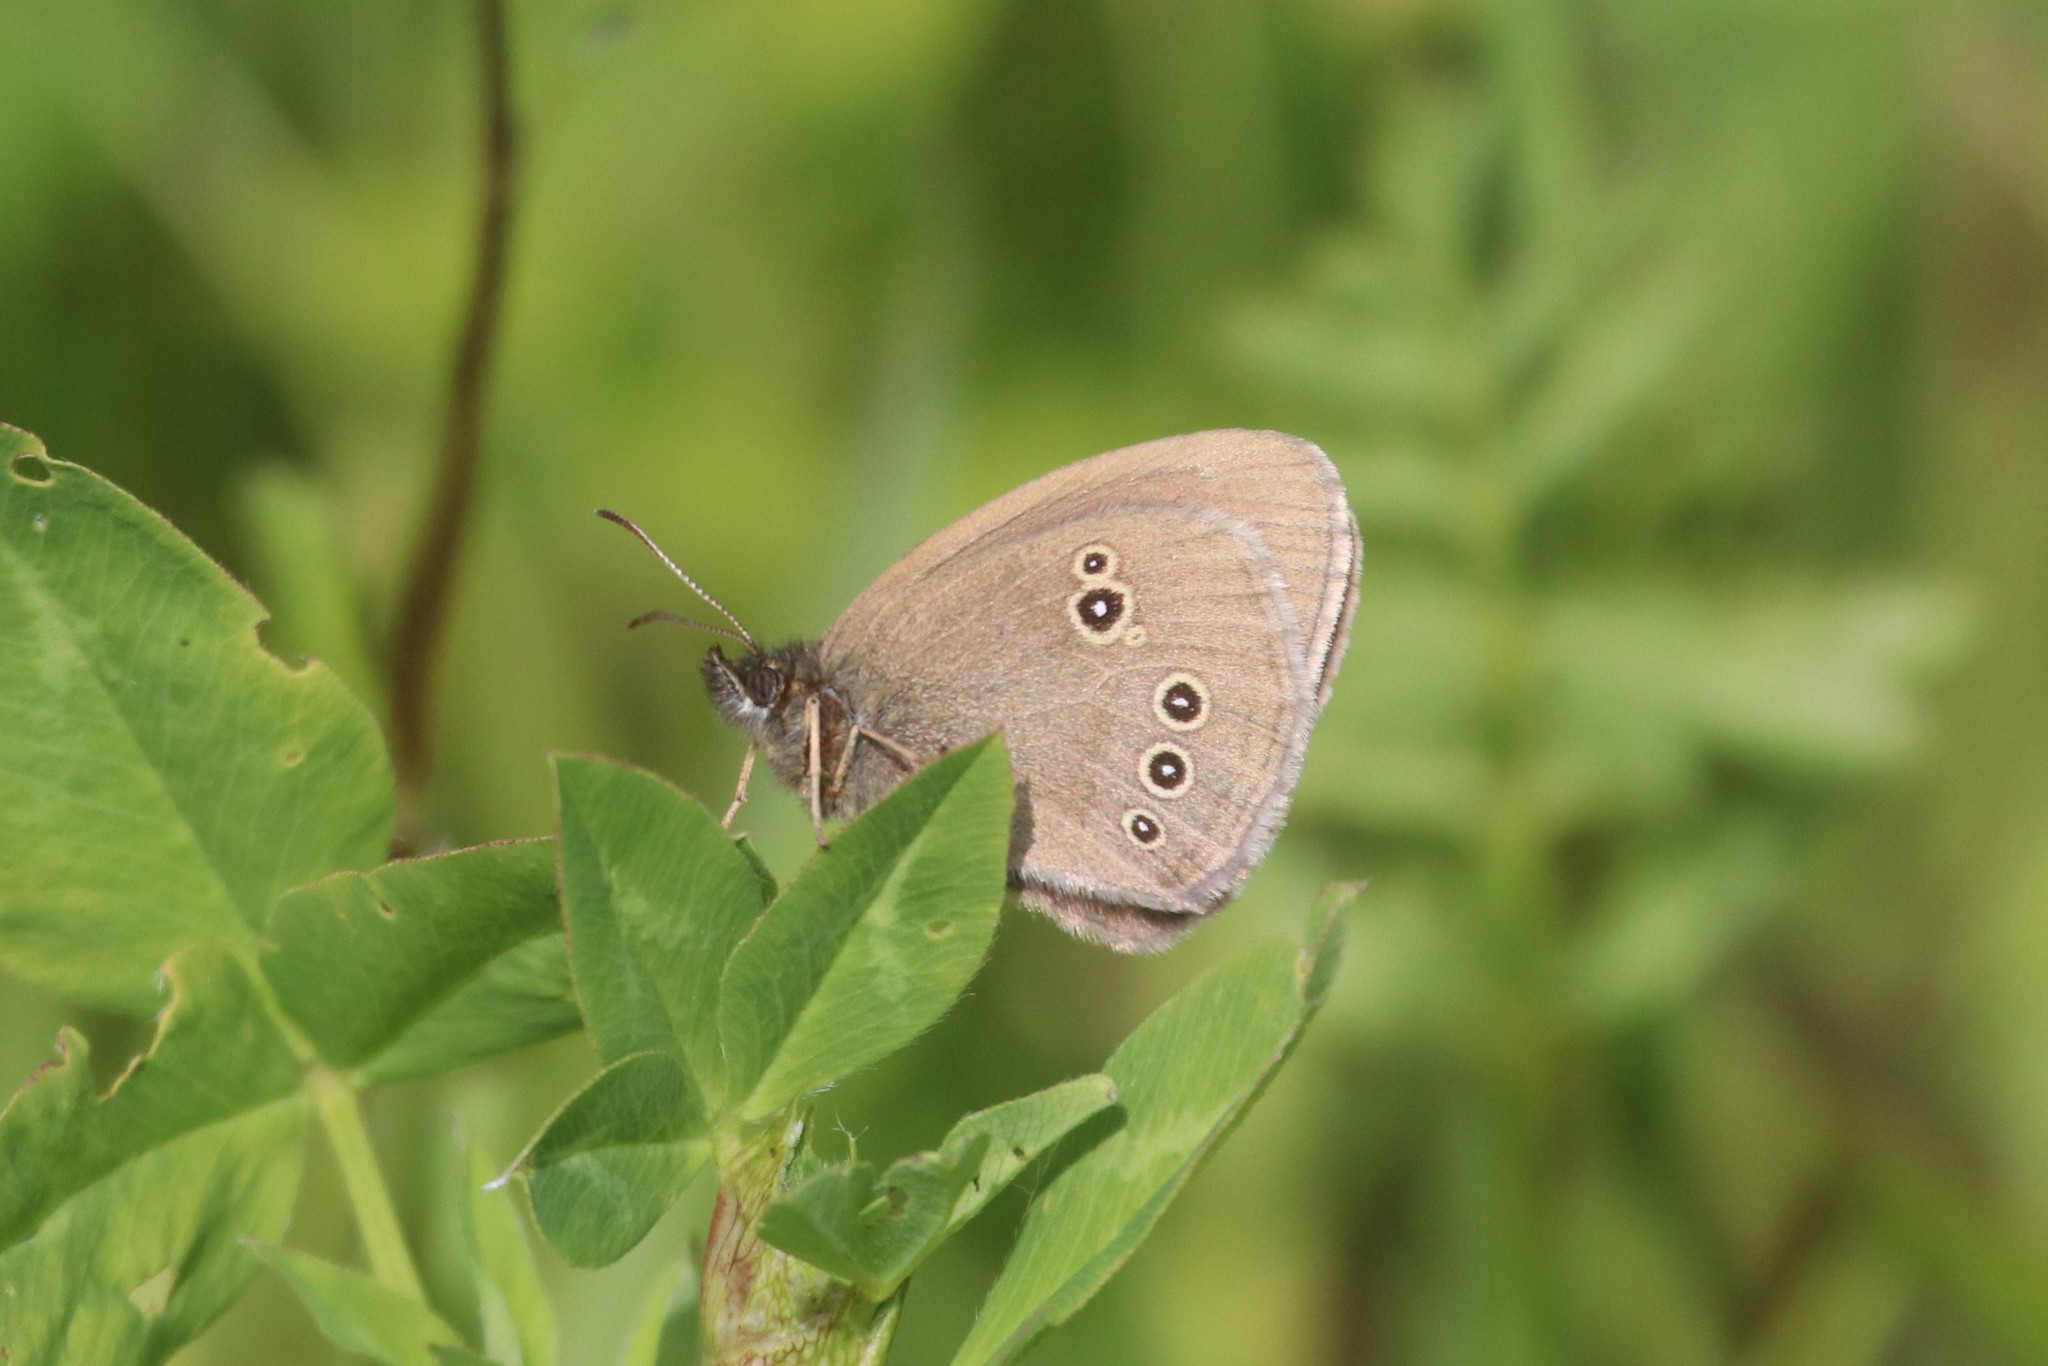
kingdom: Animalia
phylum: Arthropoda
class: Insecta
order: Lepidoptera
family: Nymphalidae
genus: Aphantopus
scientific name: Aphantopus hyperantus
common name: Ringlet
